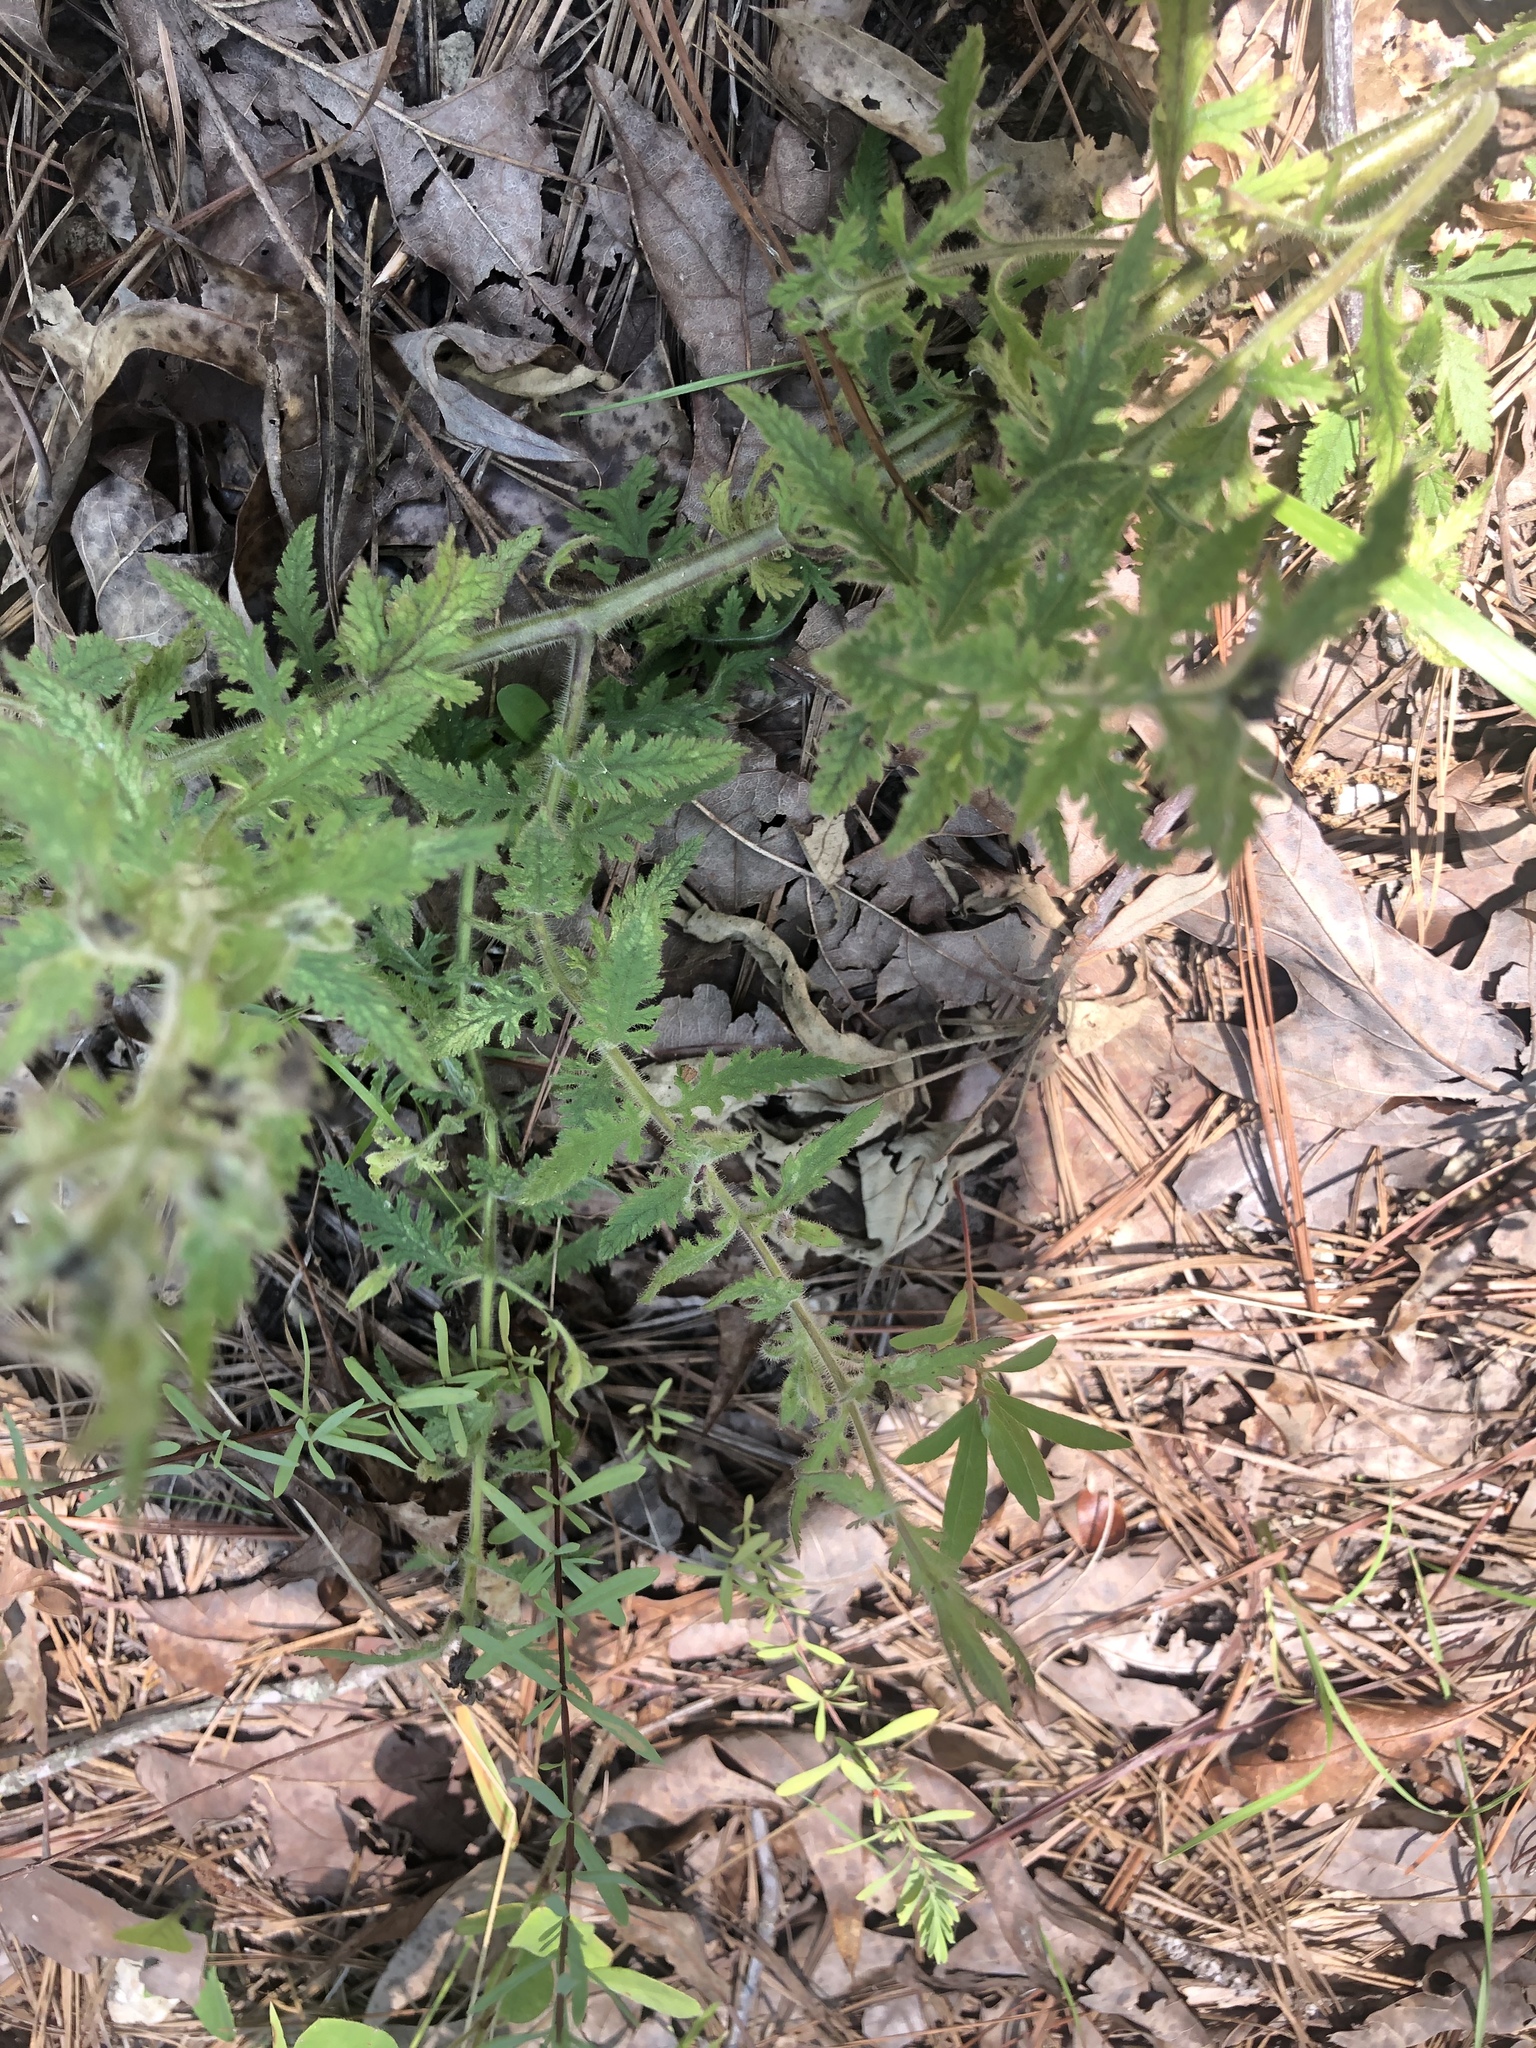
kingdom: Plantae
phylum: Tracheophyta
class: Magnoliopsida
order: Lamiales
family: Orobanchaceae
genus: Aureolaria
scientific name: Aureolaria pectinata
